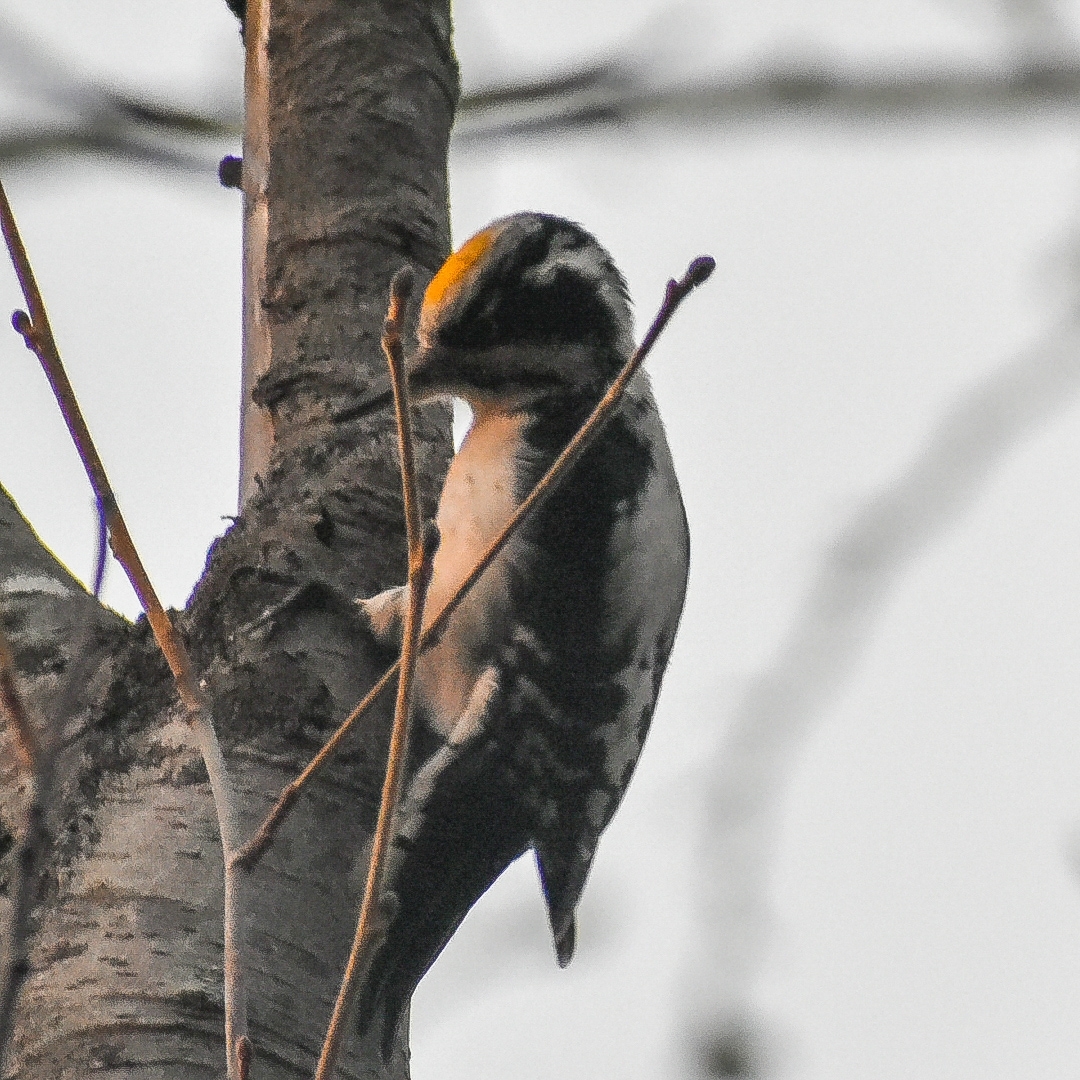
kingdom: Animalia
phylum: Chordata
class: Aves
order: Piciformes
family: Picidae
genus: Picoides
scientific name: Picoides tridactylus
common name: Eurasian three-toed woodpecker
